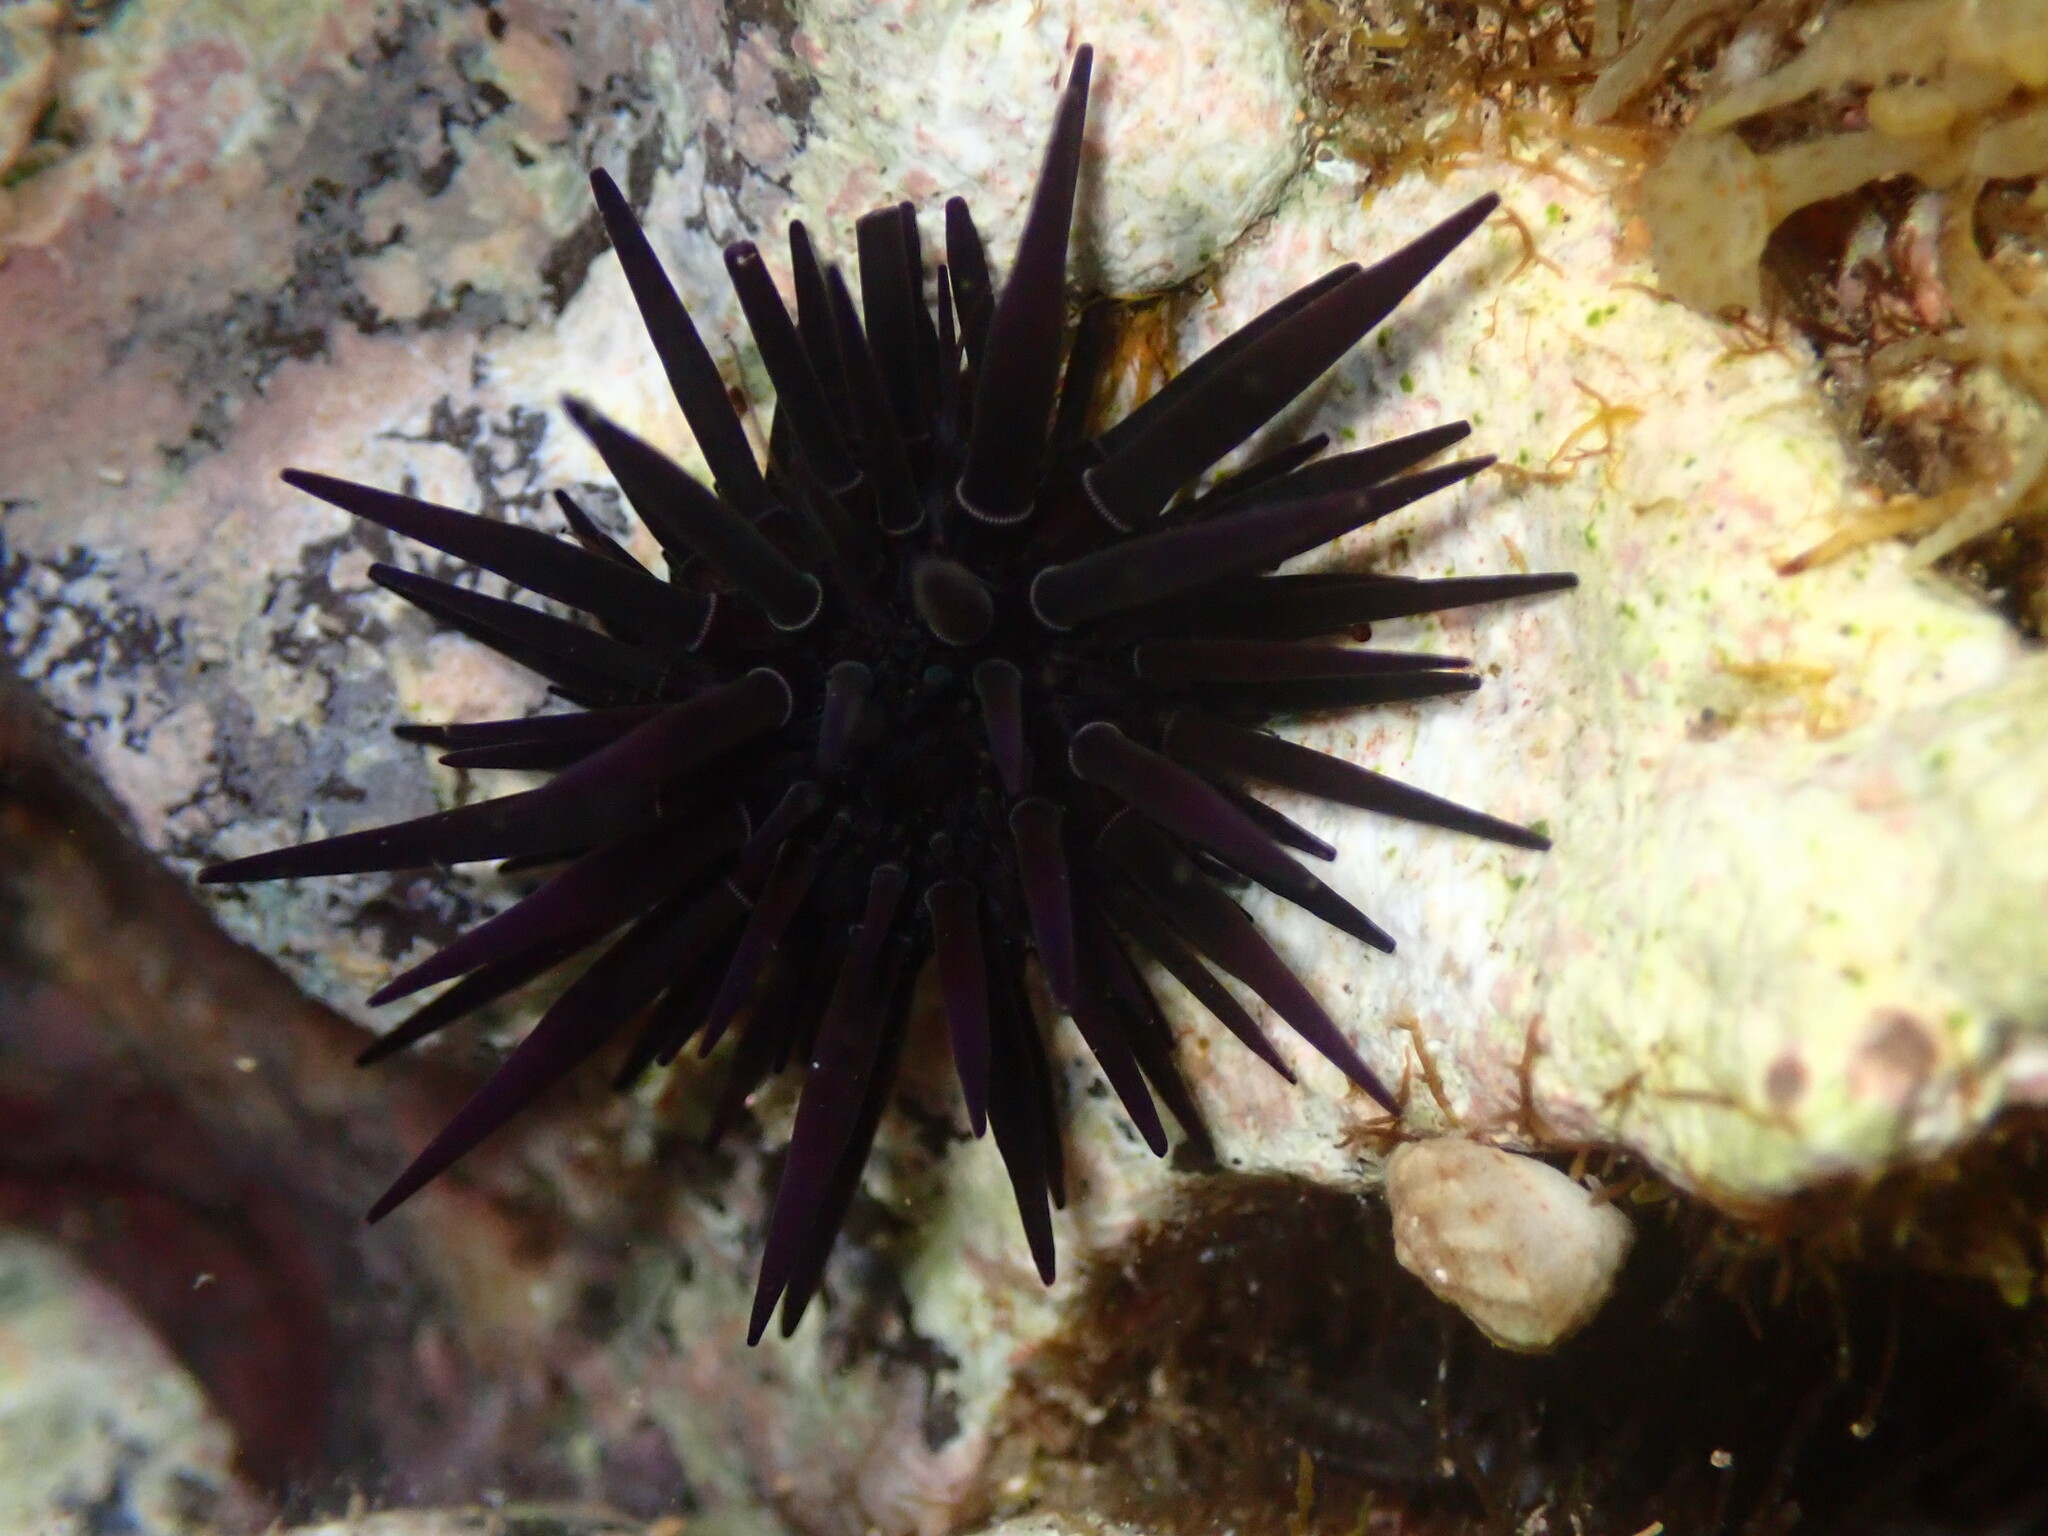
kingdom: Animalia
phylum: Echinodermata
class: Echinoidea
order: Camarodonta
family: Echinometridae
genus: Echinometra
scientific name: Echinometra oblonga
